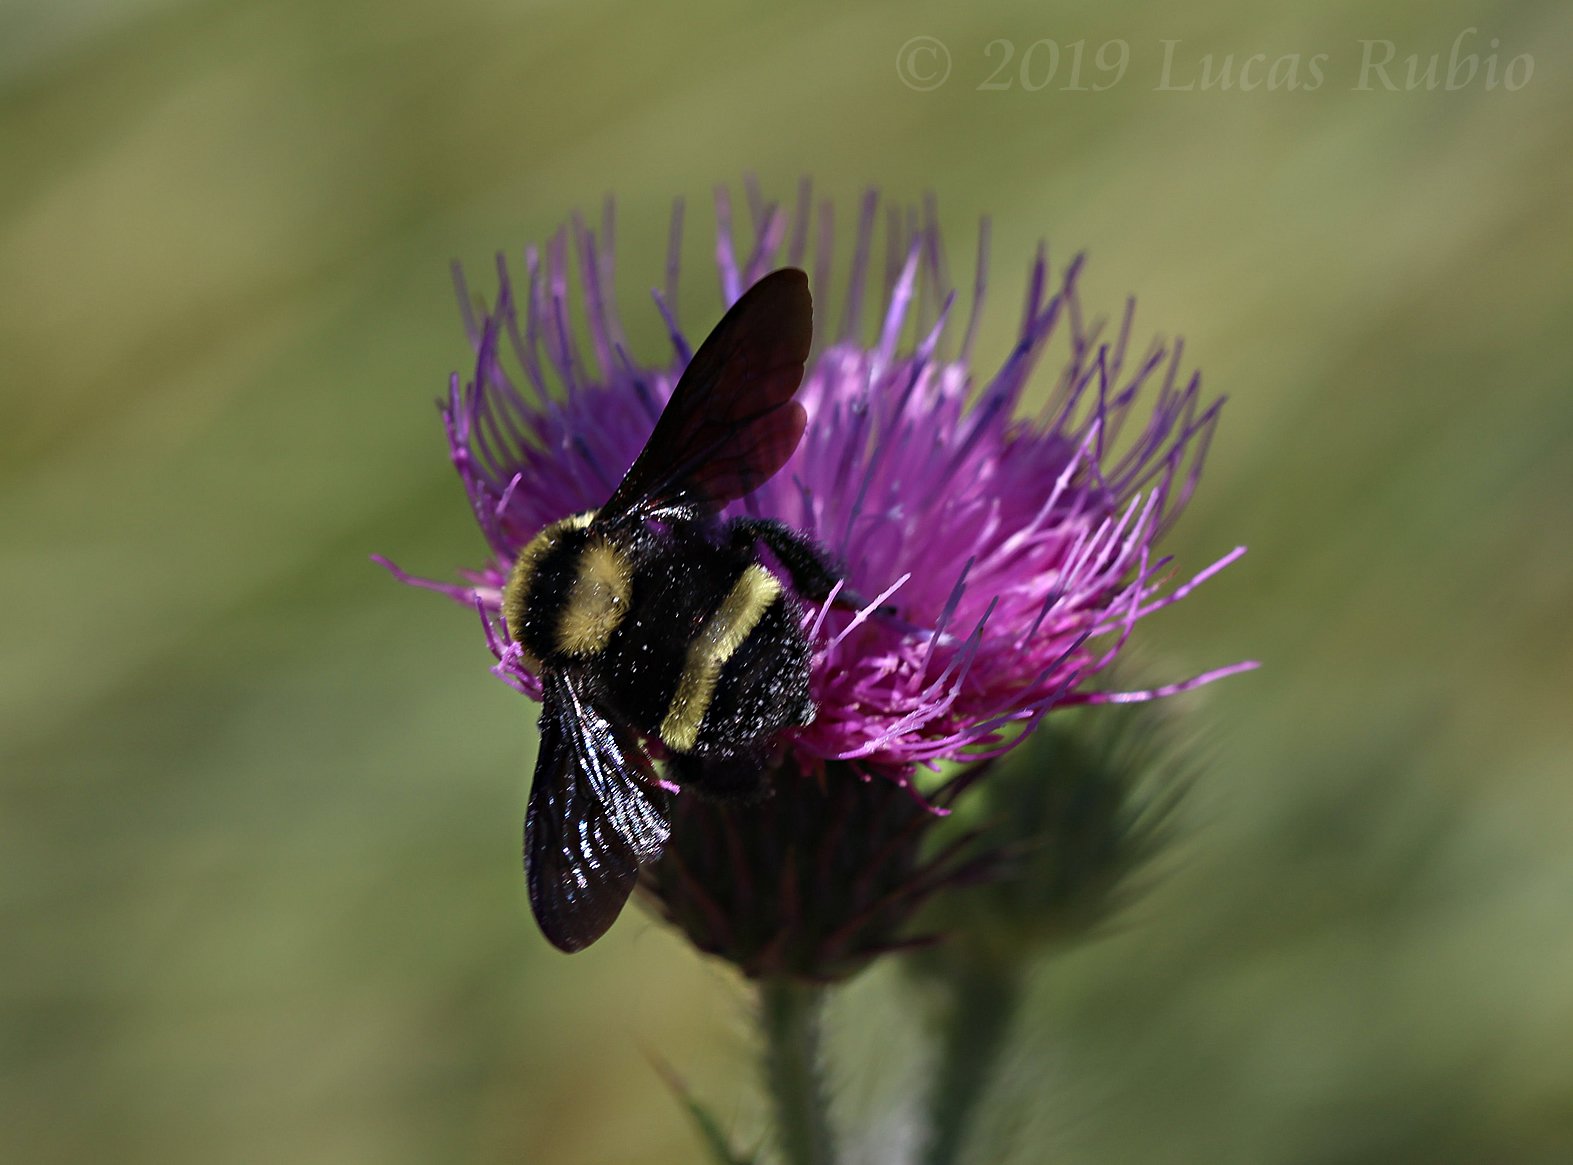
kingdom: Animalia
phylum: Arthropoda
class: Insecta
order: Hymenoptera
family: Apidae
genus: Bombus
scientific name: Bombus pauloensis
